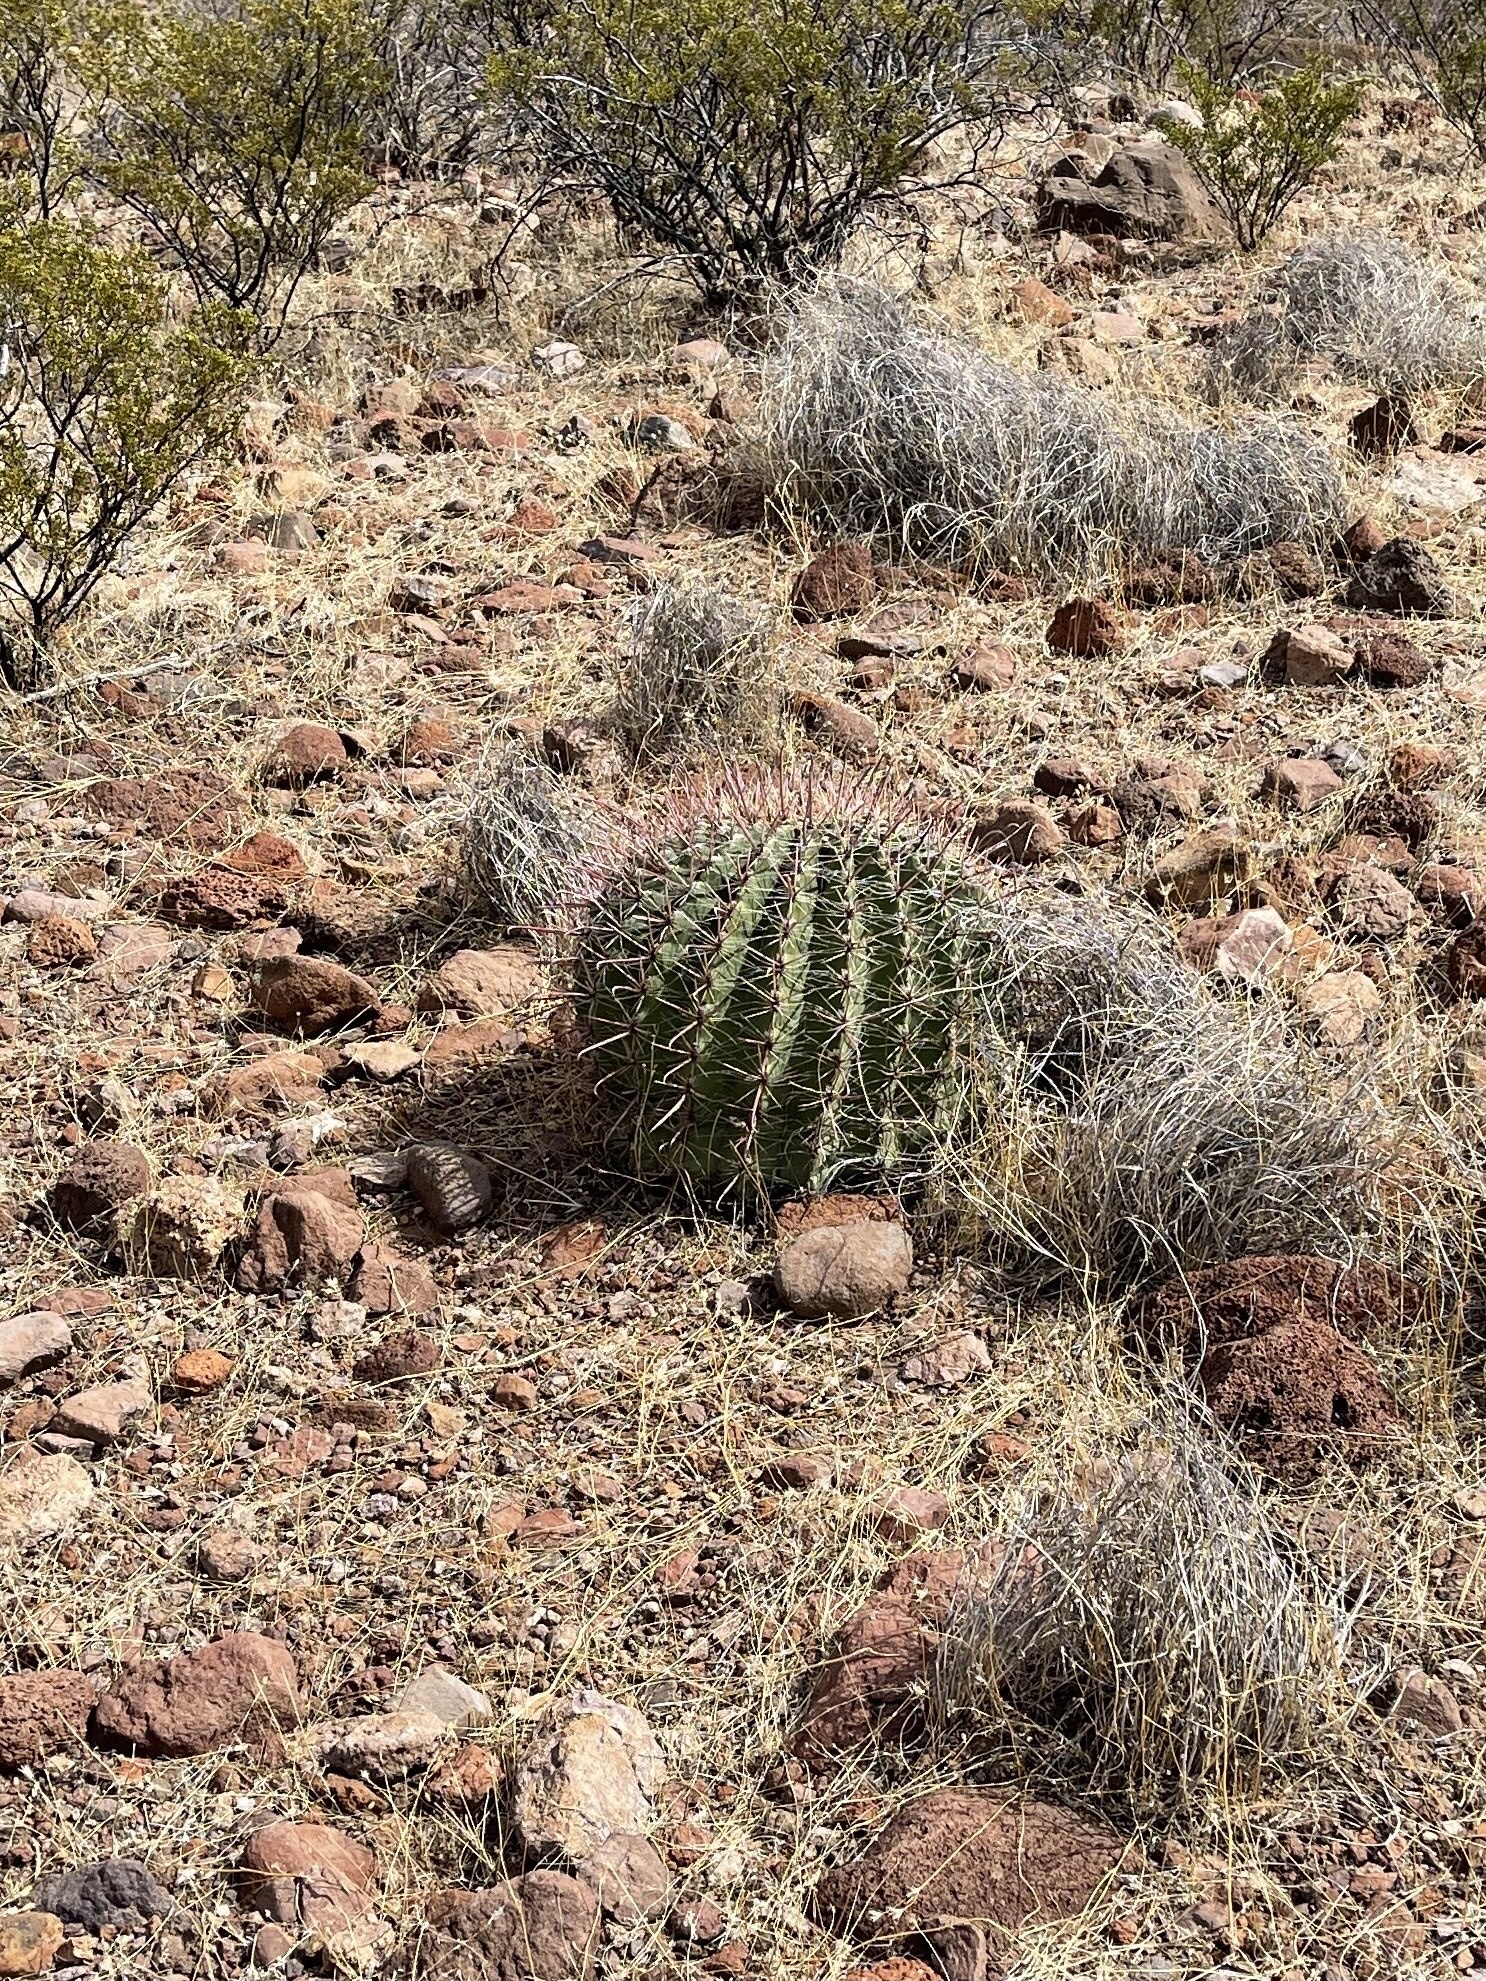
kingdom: Plantae
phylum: Tracheophyta
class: Magnoliopsida
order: Caryophyllales
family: Cactaceae
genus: Ferocactus
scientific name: Ferocactus wislizeni
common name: Candy barrel cactus
